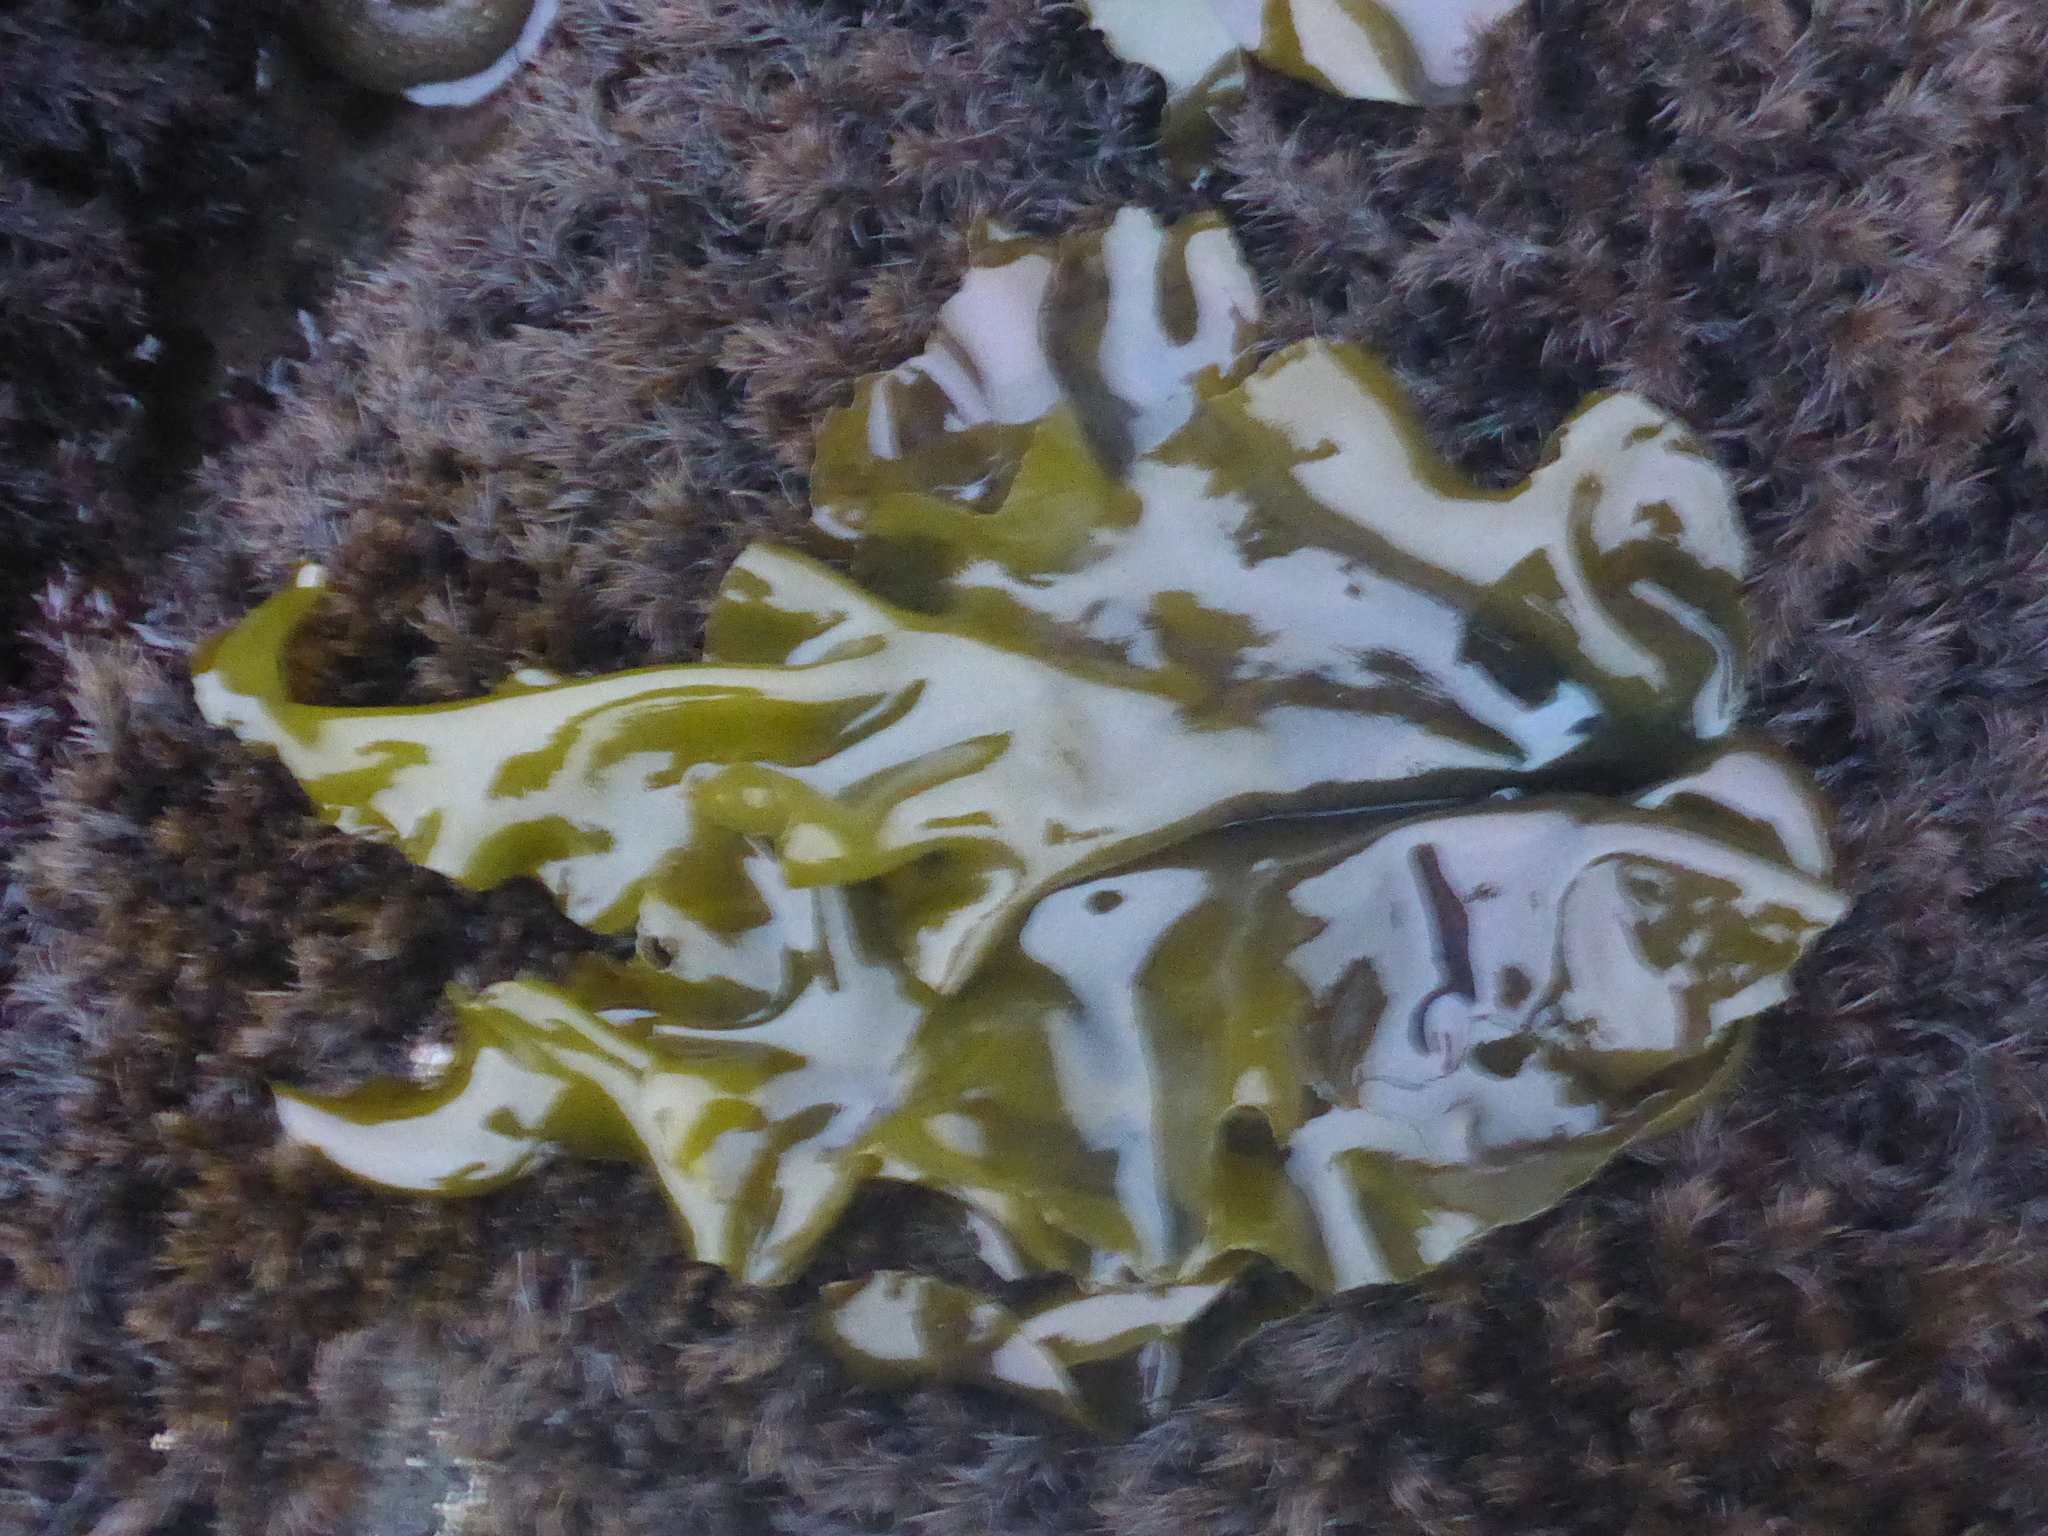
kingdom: Plantae
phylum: Rhodophyta
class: Florideophyceae
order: Gigartinales
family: Gigartinaceae
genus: Mazzaella
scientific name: Mazzaella flaccida
